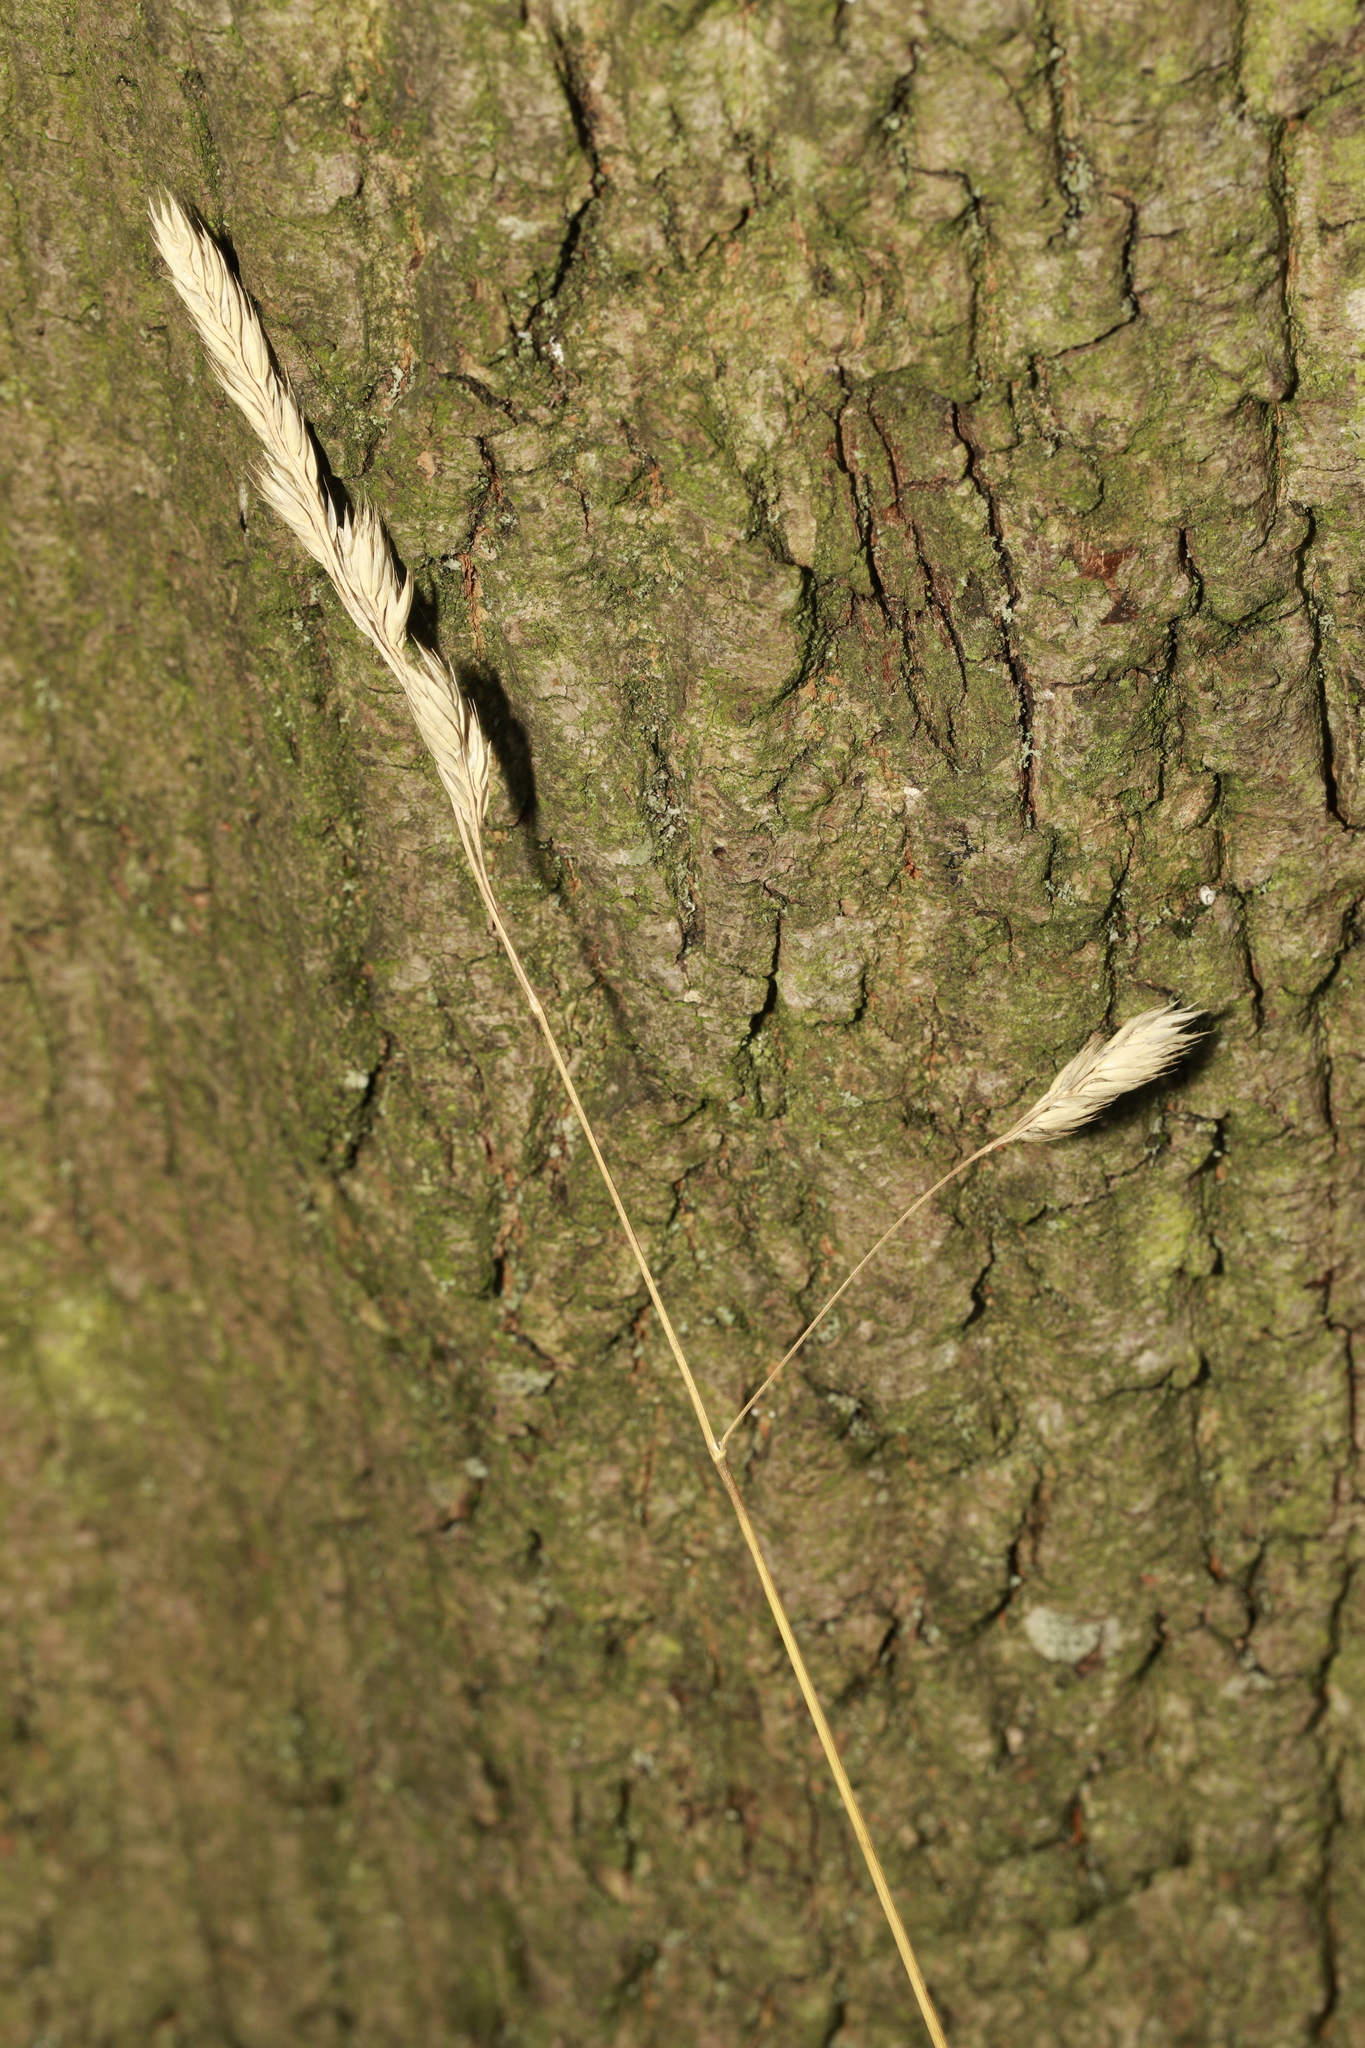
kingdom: Plantae
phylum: Tracheophyta
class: Liliopsida
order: Poales
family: Poaceae
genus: Dactylis
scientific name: Dactylis glomerata
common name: Orchardgrass
